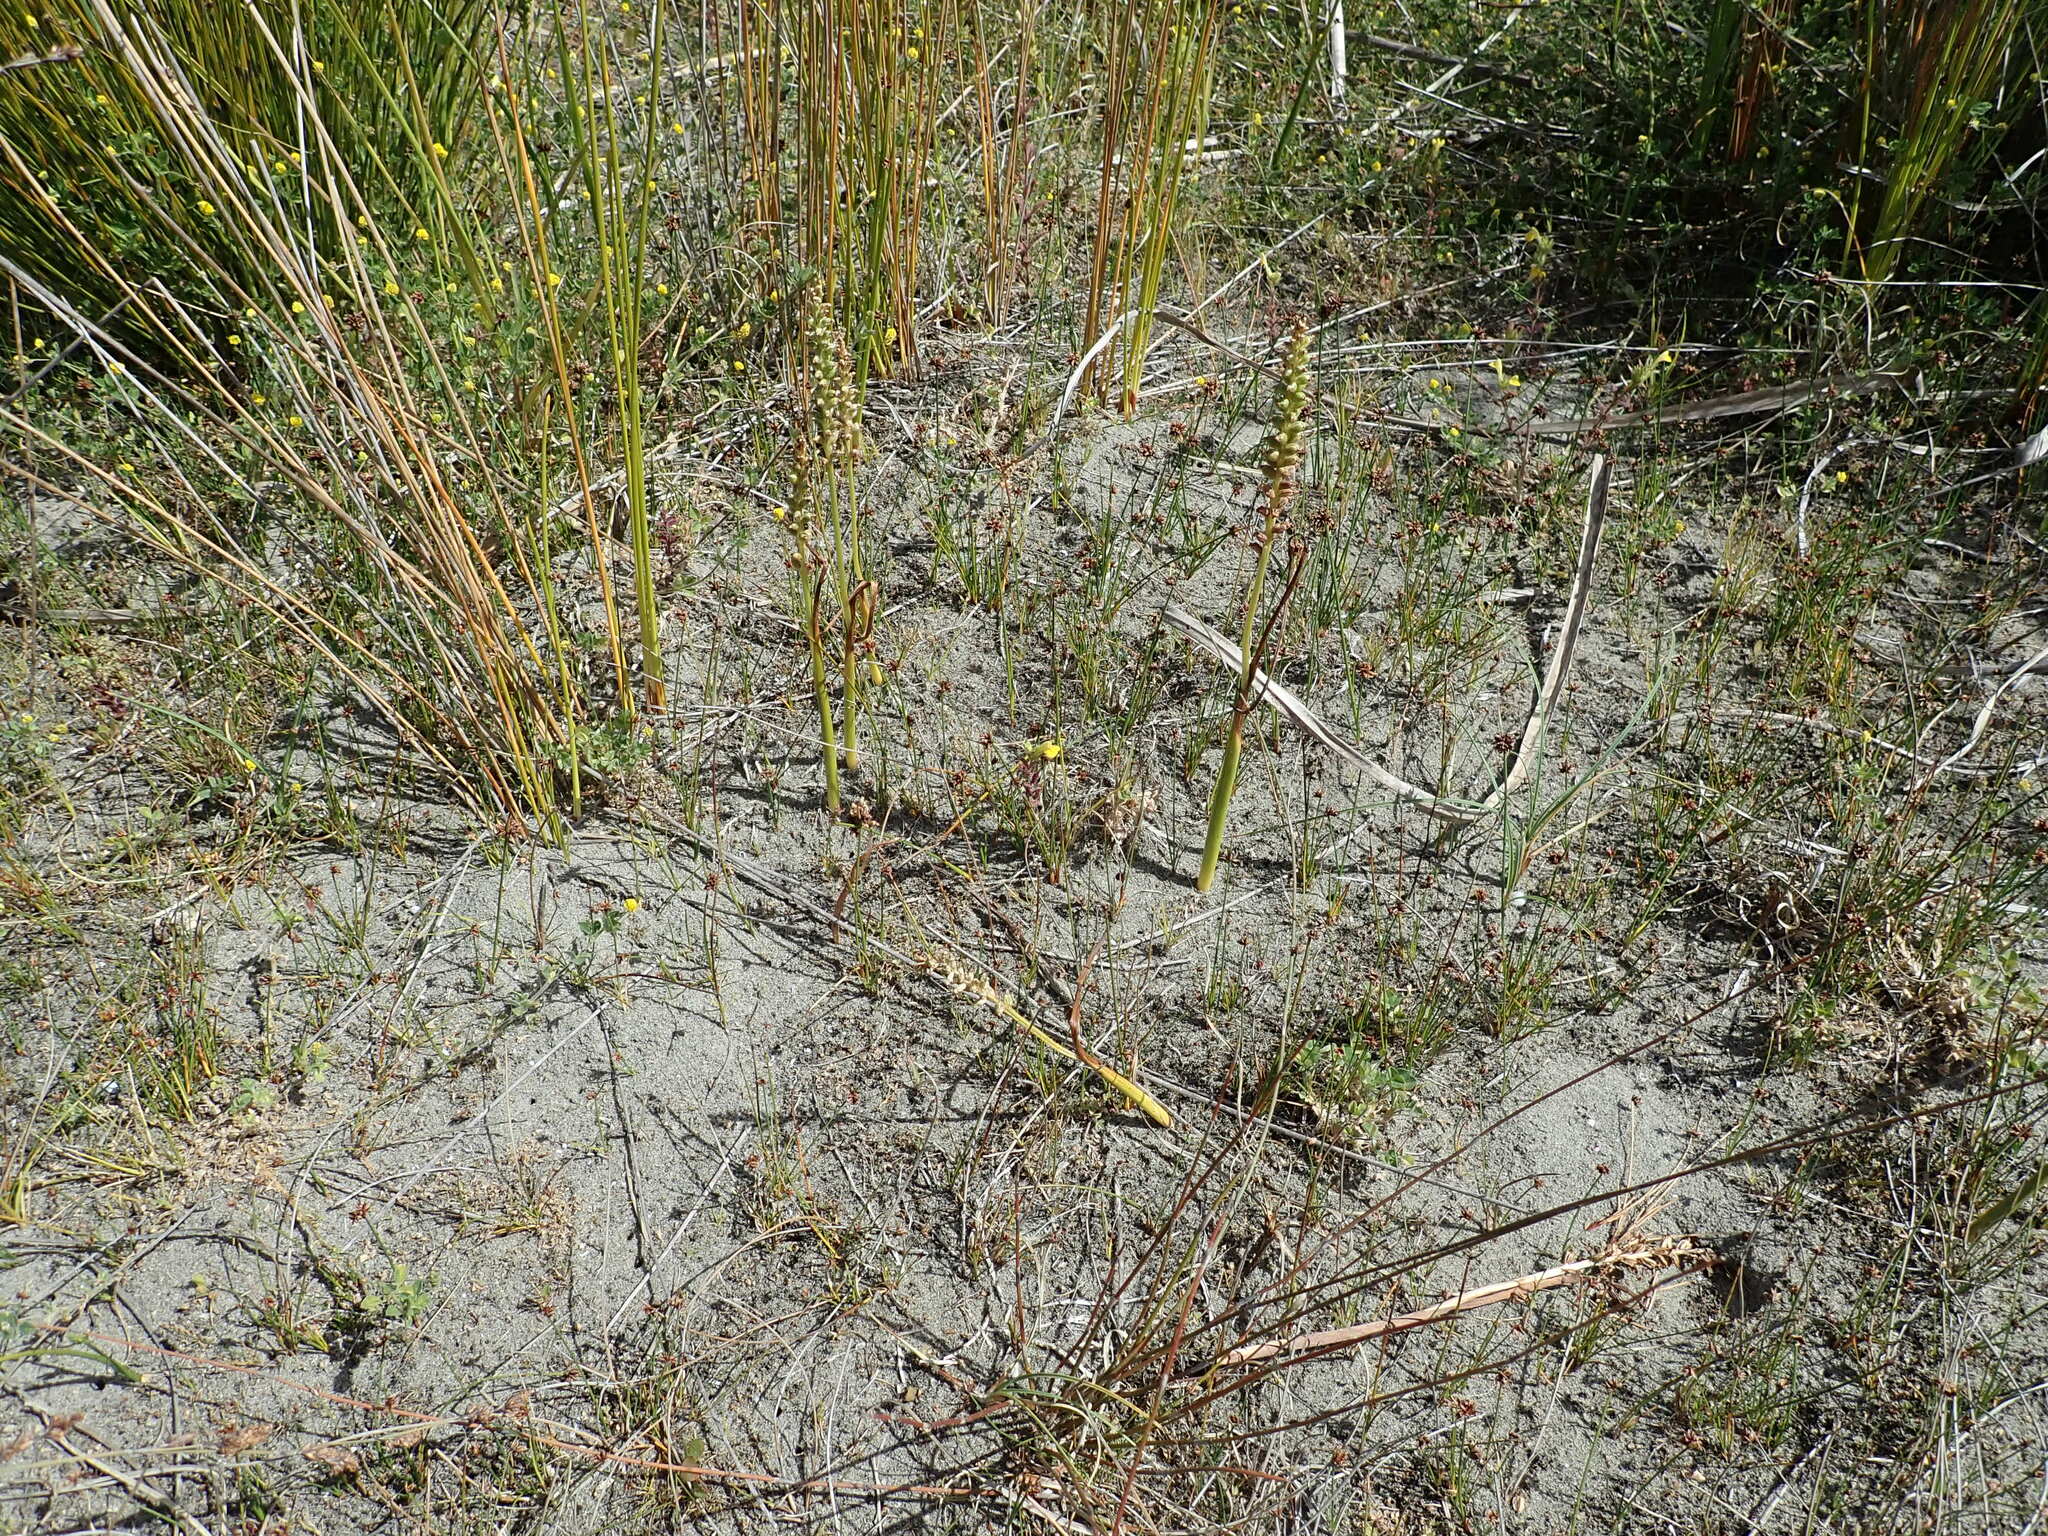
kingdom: Plantae
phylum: Tracheophyta
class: Liliopsida
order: Asparagales
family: Orchidaceae
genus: Microtis
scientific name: Microtis unifolia
